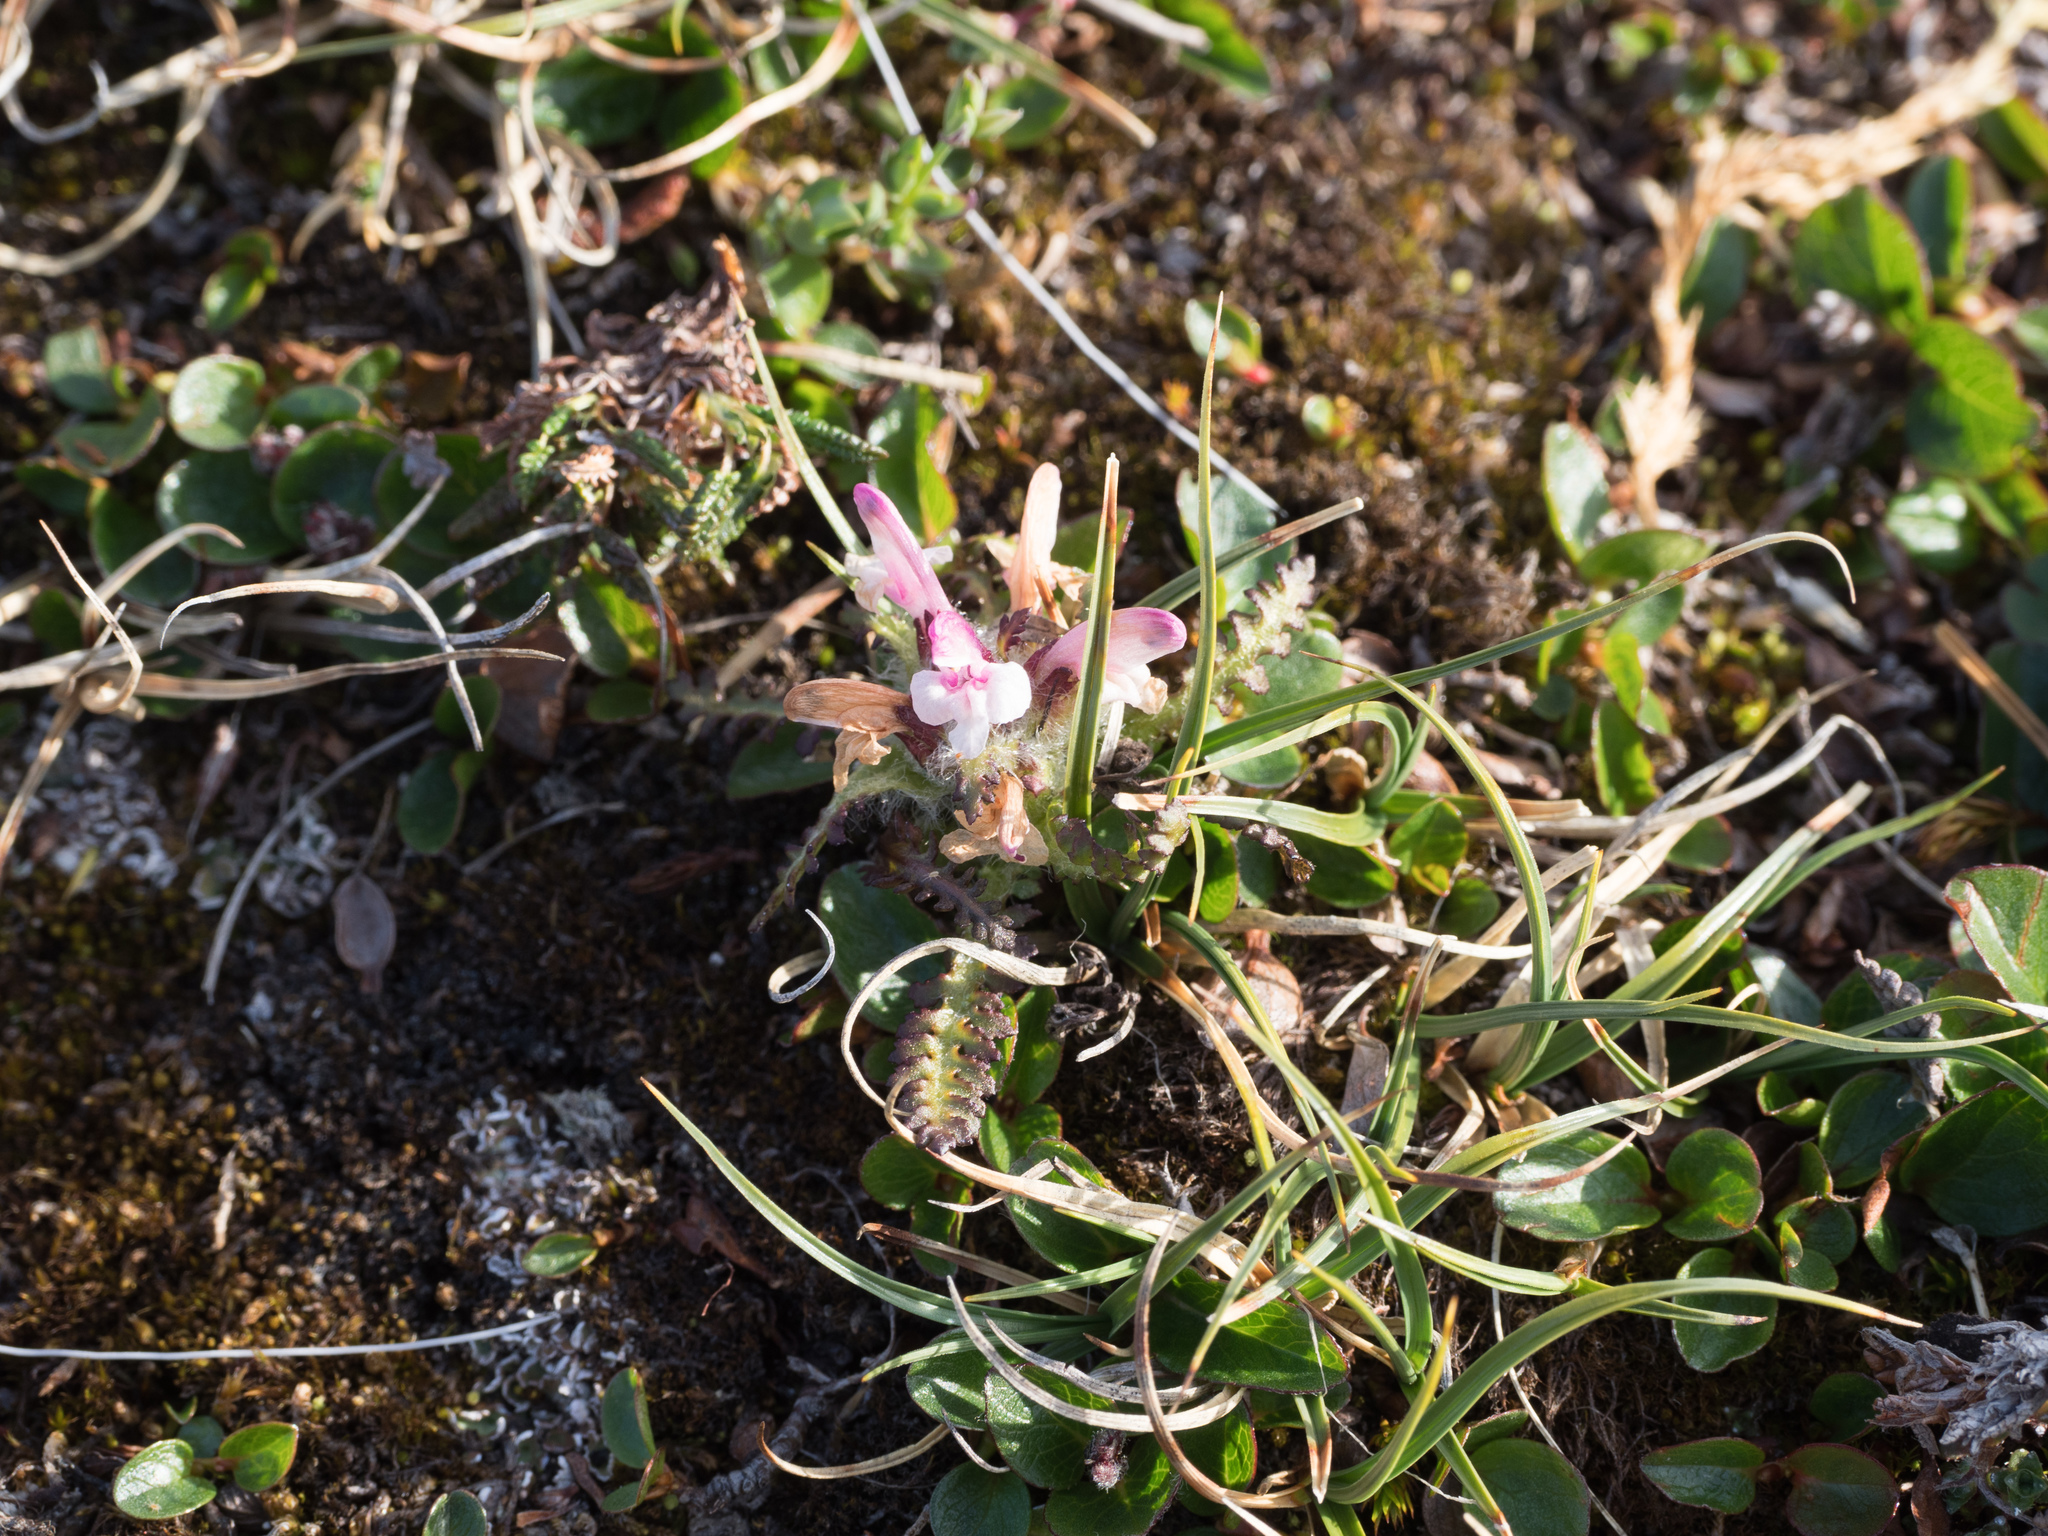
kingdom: Plantae
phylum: Tracheophyta
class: Magnoliopsida
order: Lamiales
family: Orobanchaceae
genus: Pedicularis
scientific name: Pedicularis hirsuta
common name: Hairy lousewort
